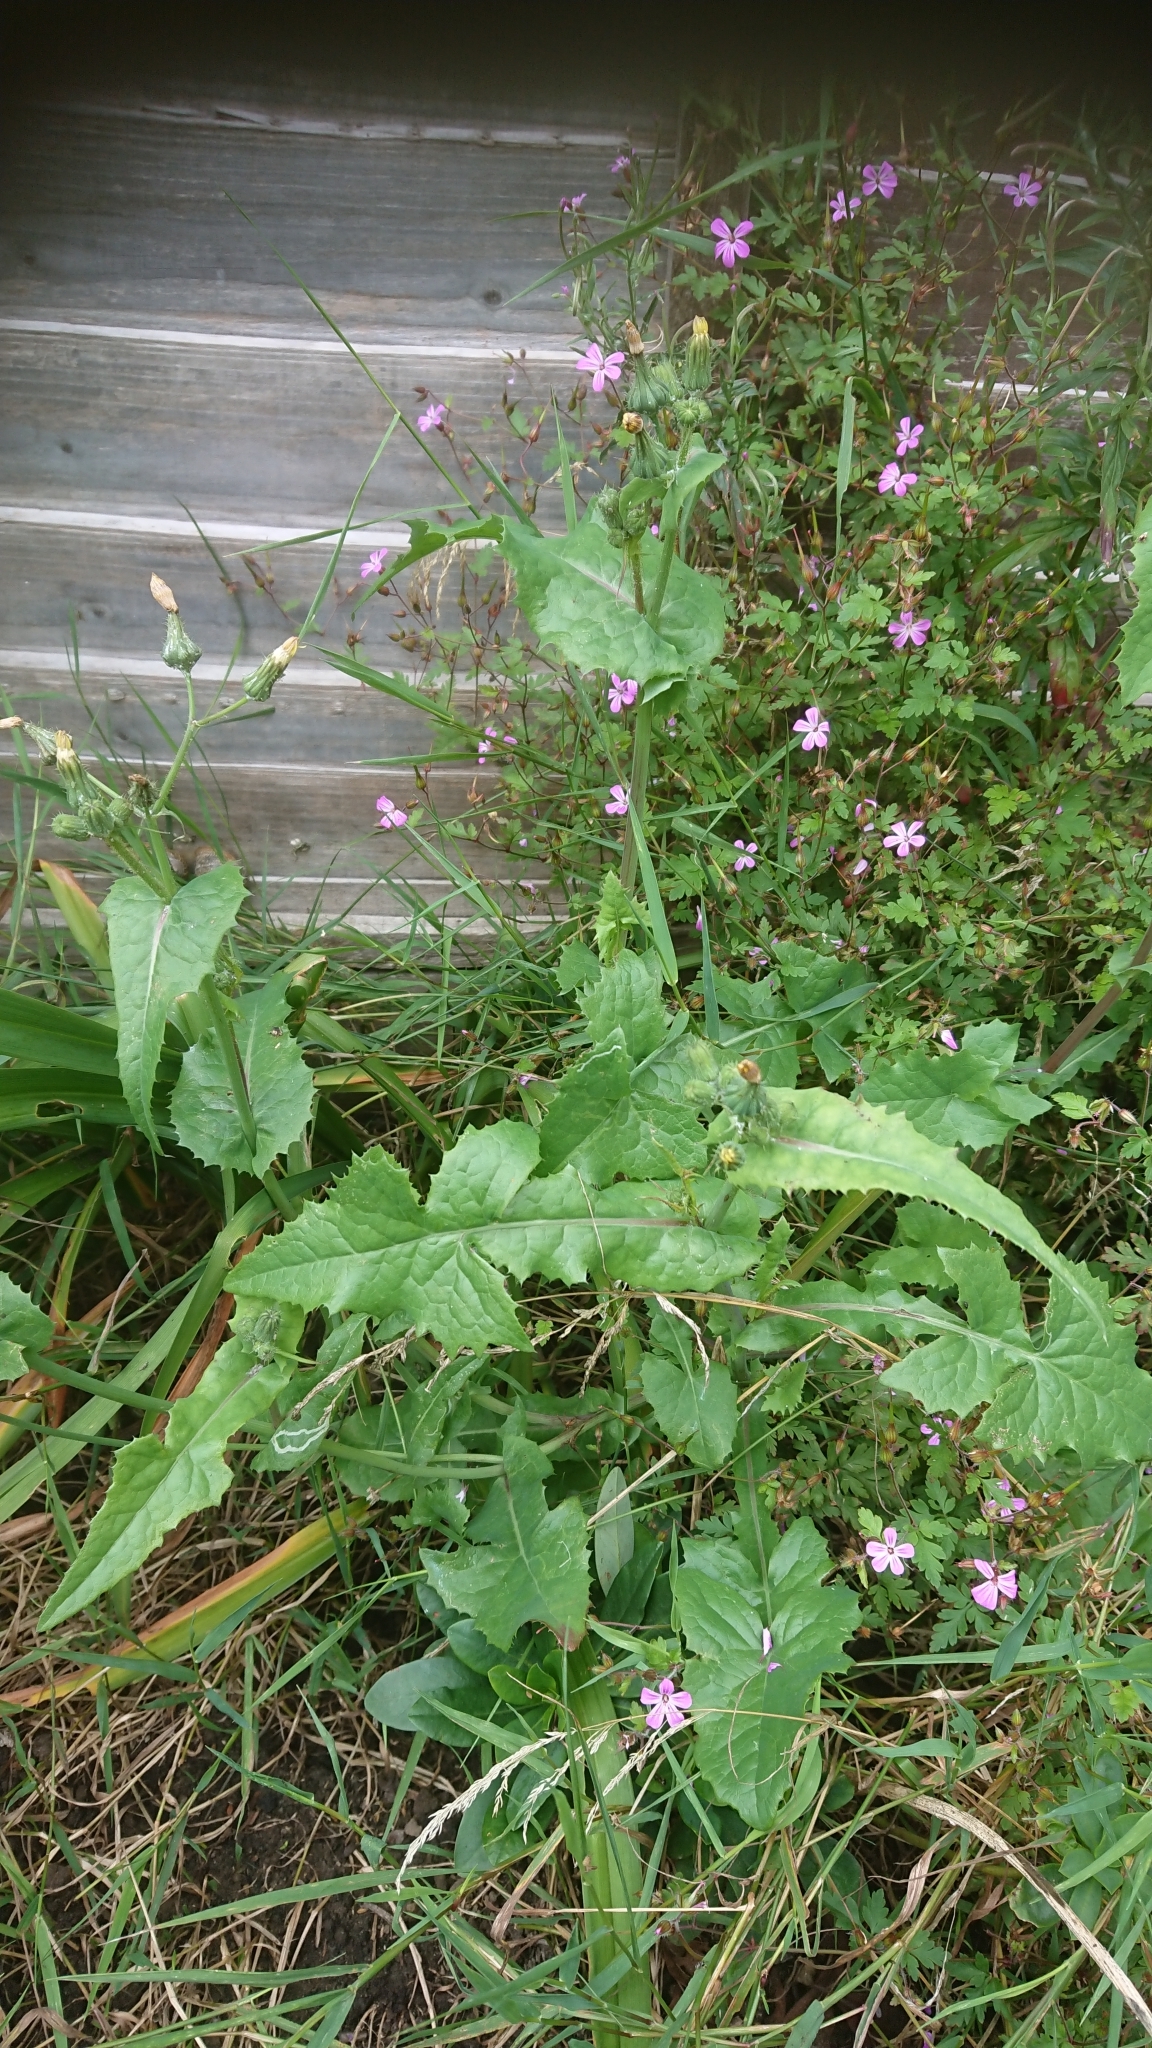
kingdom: Plantae
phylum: Tracheophyta
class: Magnoliopsida
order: Asterales
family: Asteraceae
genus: Sonchus
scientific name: Sonchus oleraceus
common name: Common sowthistle
